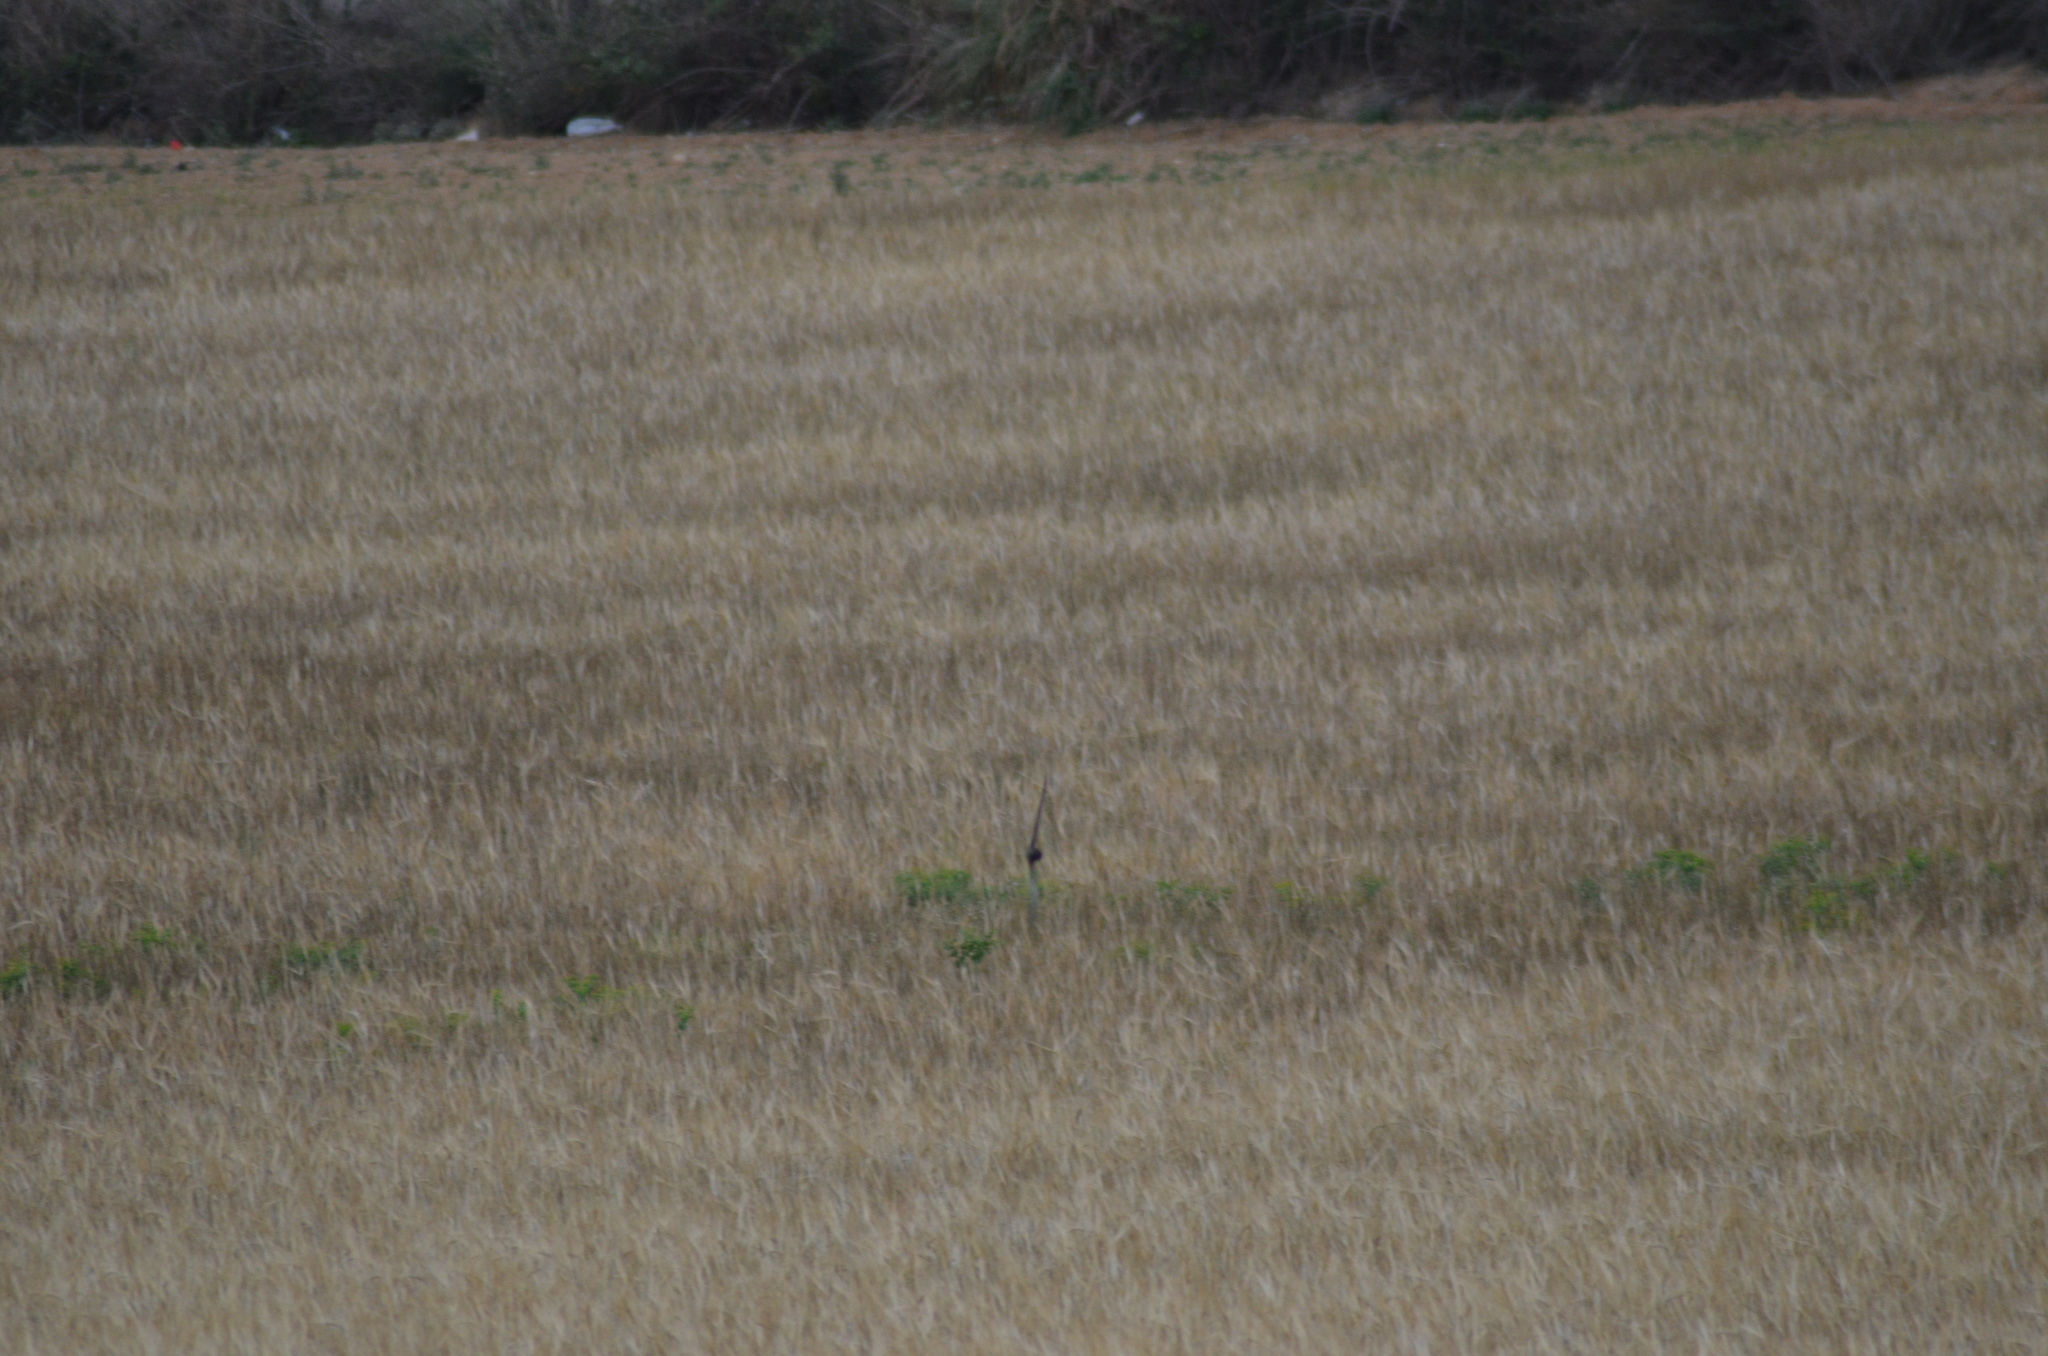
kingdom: Animalia
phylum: Chordata
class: Aves
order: Apodiformes
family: Apodidae
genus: Apus
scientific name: Apus apus
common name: Common swift
